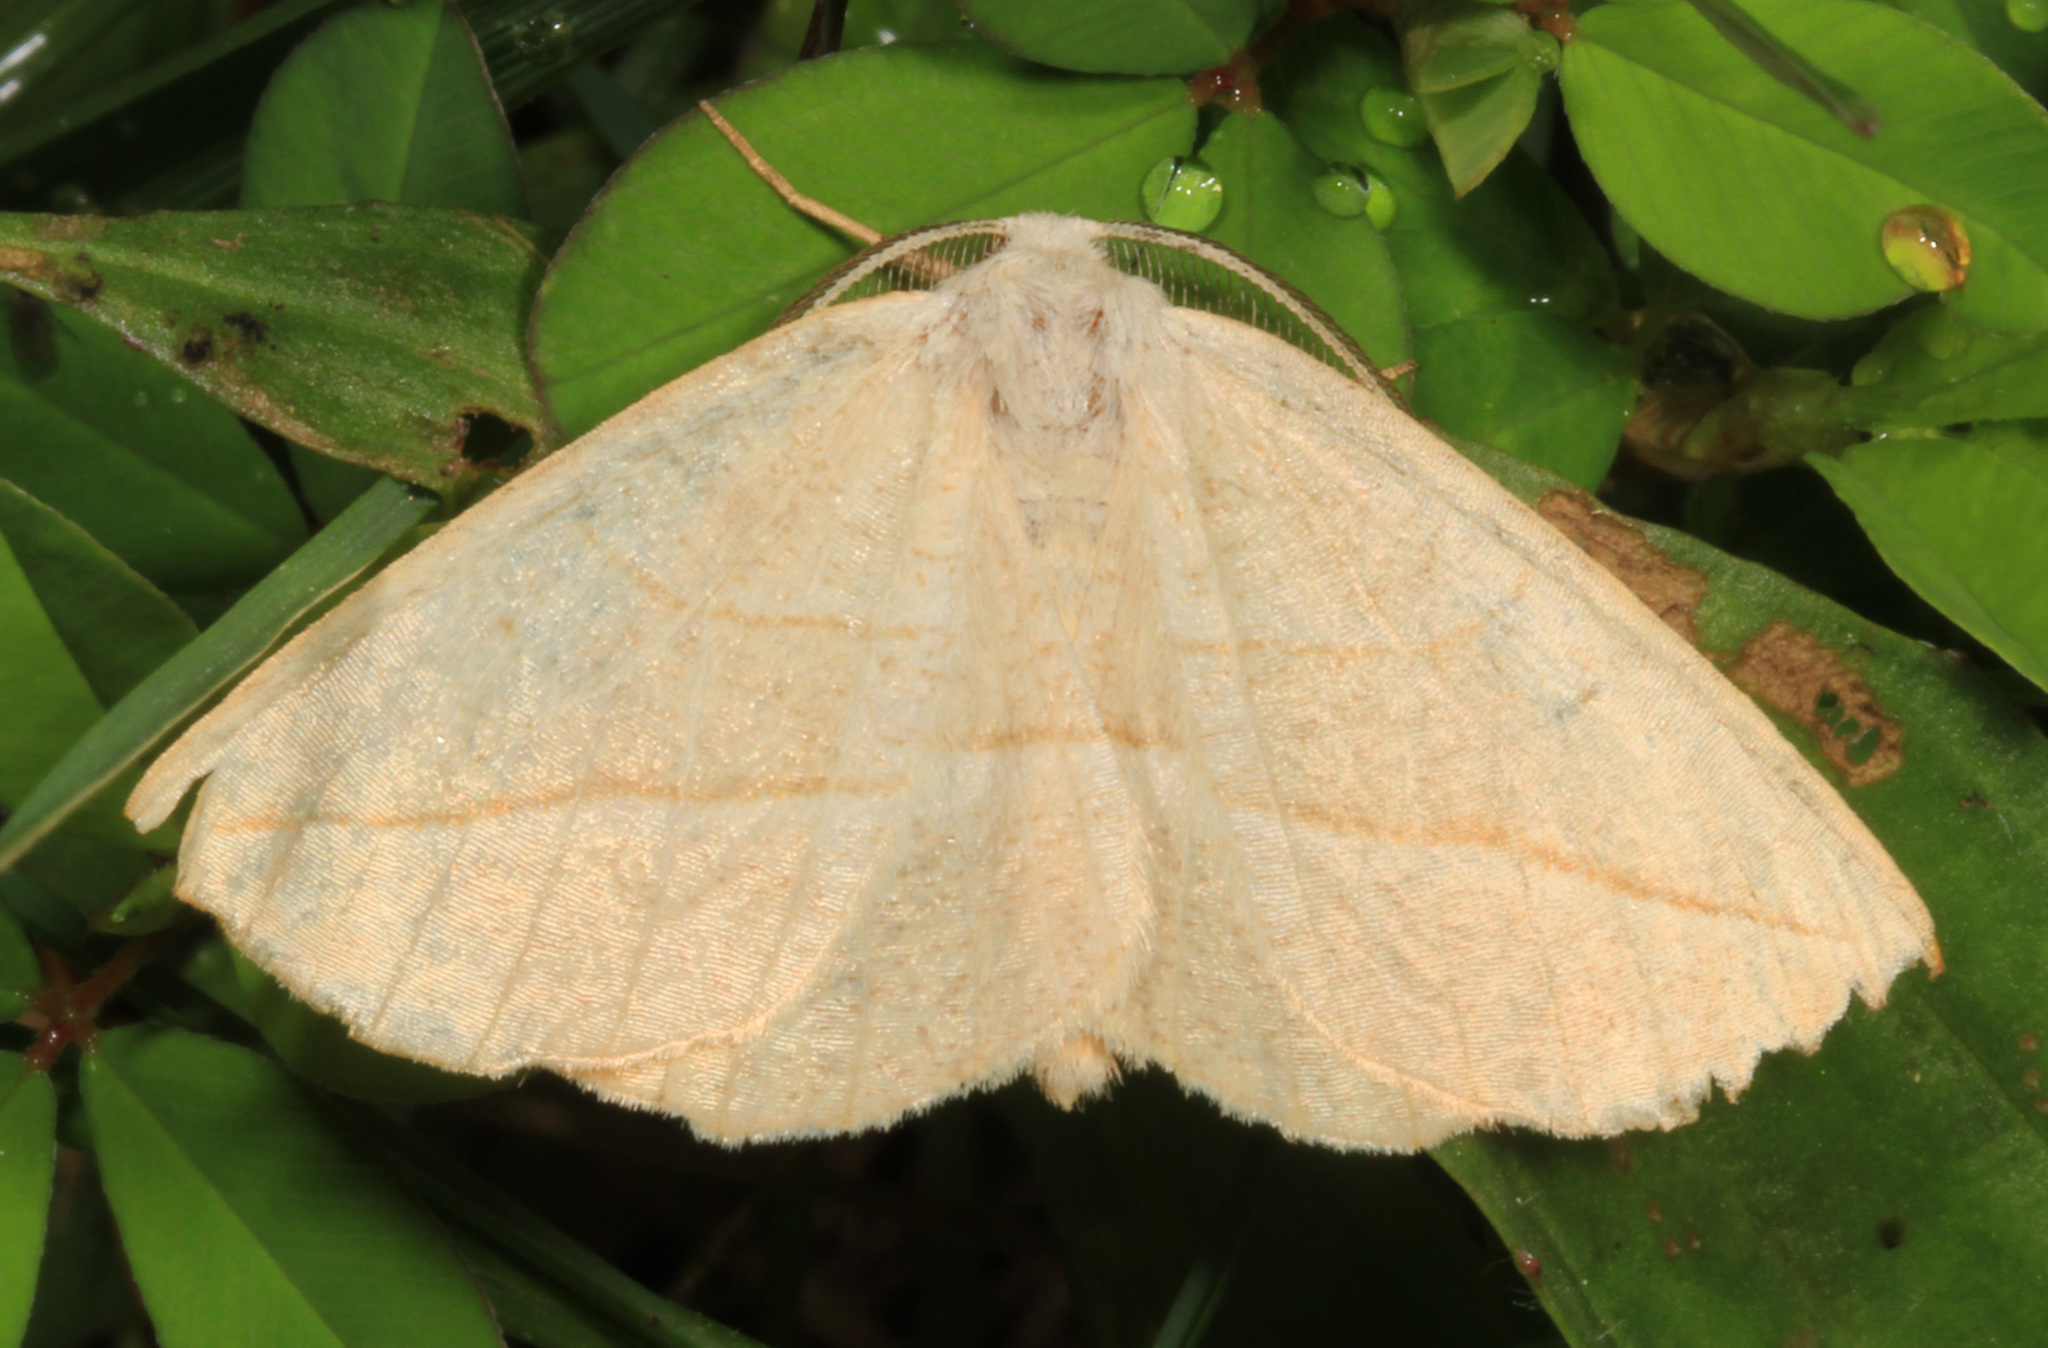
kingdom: Animalia
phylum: Arthropoda
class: Insecta
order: Lepidoptera
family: Geometridae
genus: Eusarca
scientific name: Eusarca confusaria
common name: Confused eusarca
